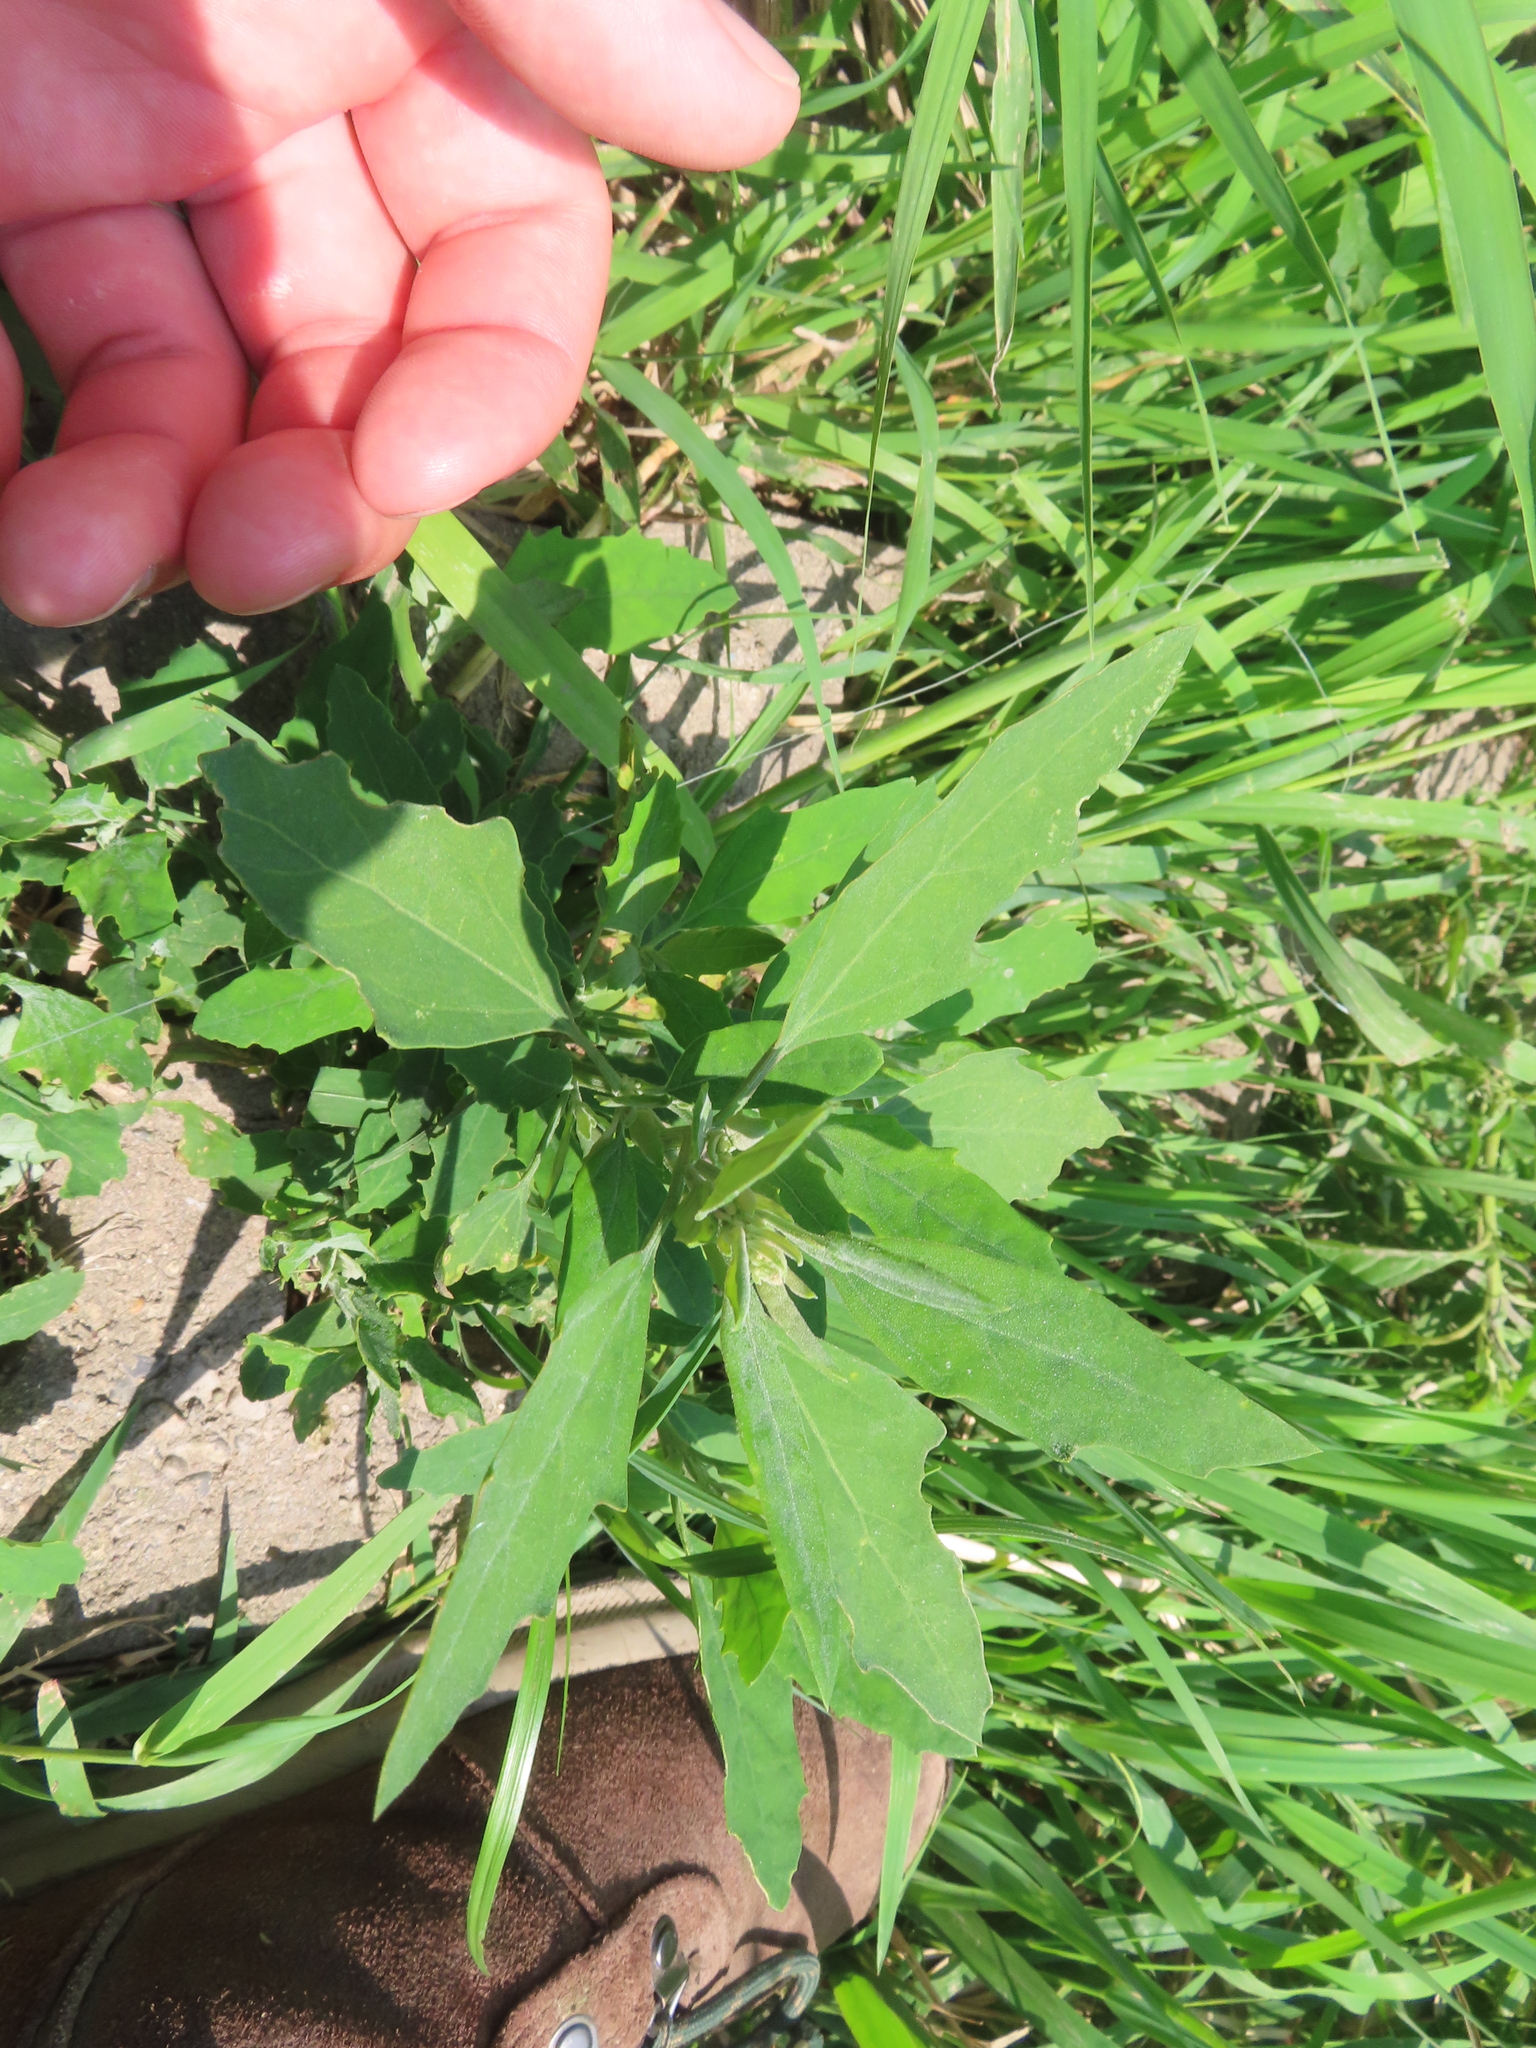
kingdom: Plantae
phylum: Tracheophyta
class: Magnoliopsida
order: Caryophyllales
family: Amaranthaceae
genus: Chenopodium
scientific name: Chenopodium album
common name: Fat-hen
